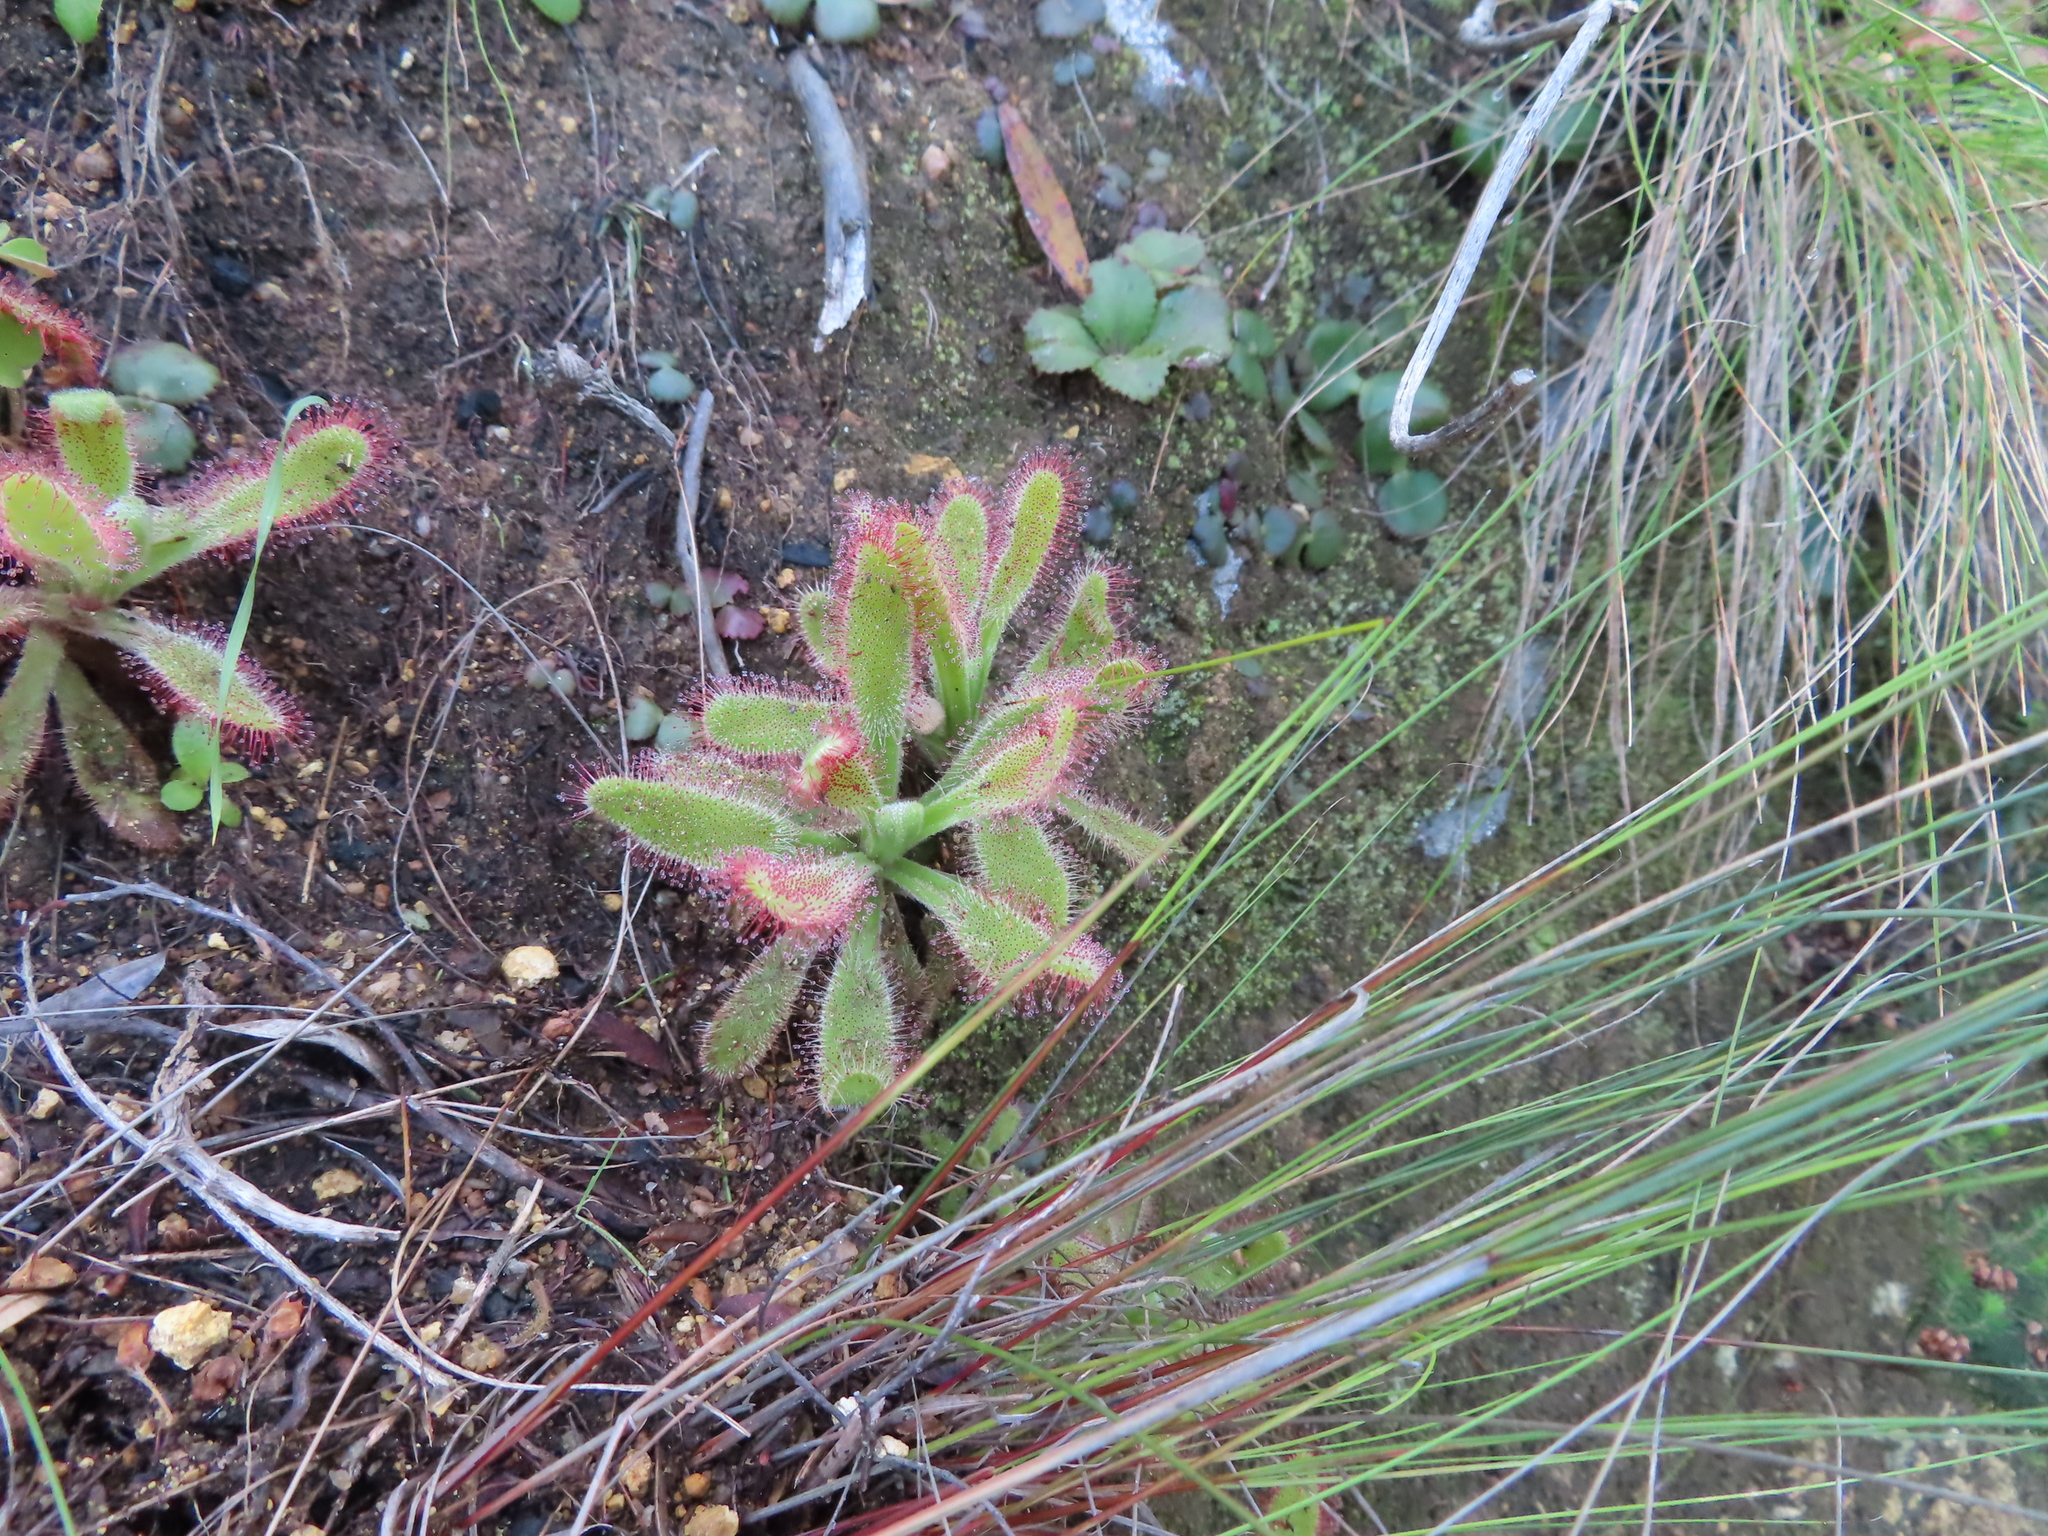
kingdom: Plantae
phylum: Tracheophyta
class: Magnoliopsida
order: Caryophyllales
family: Droseraceae
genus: Drosera
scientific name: Drosera hilaris
